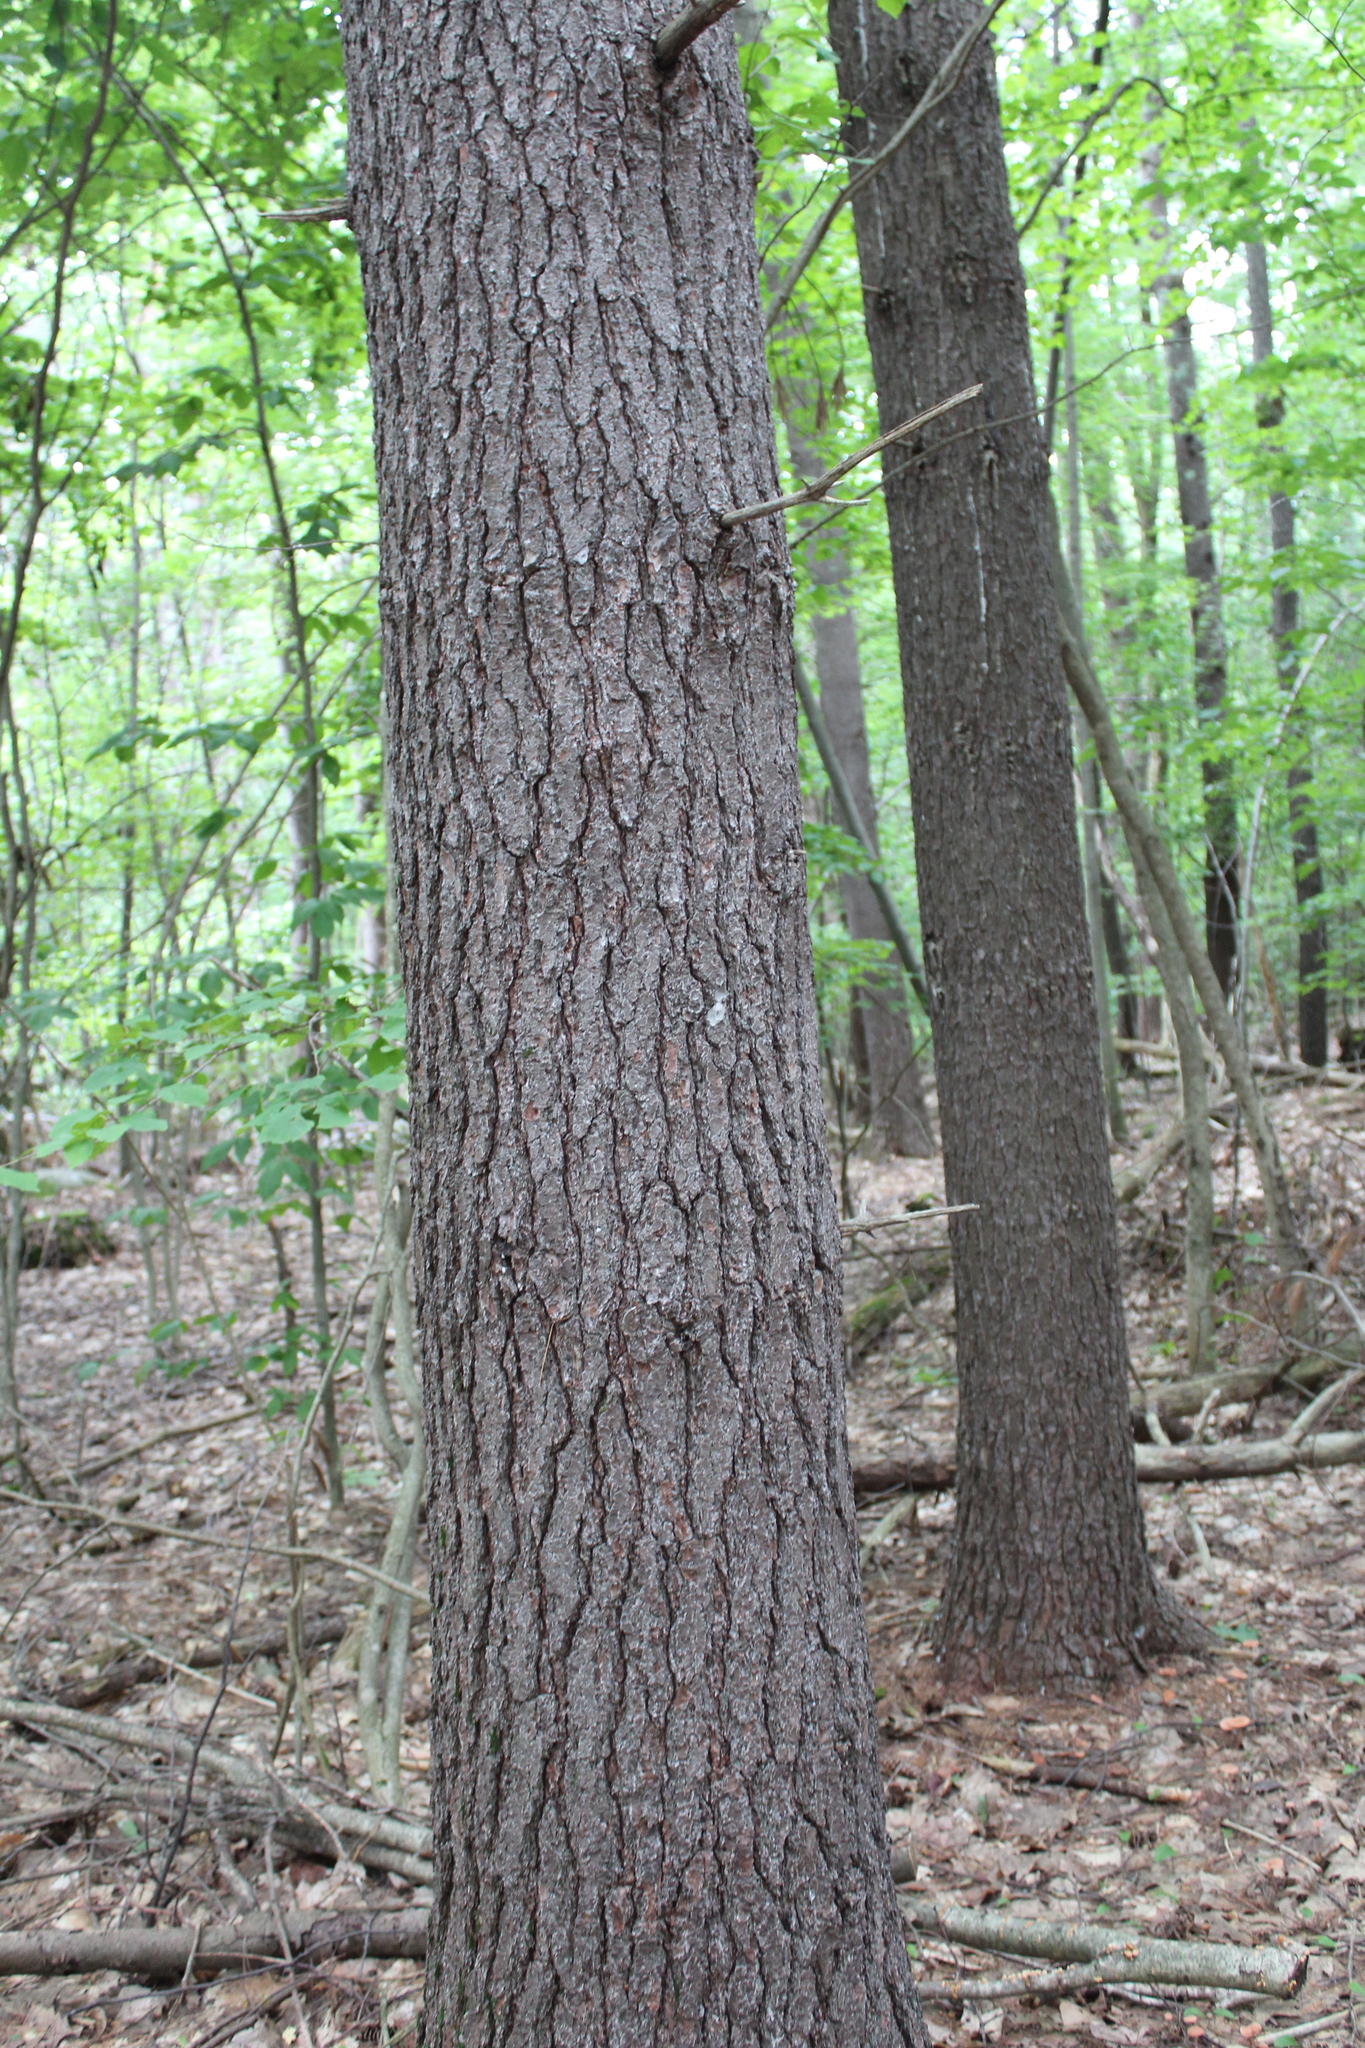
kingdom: Plantae
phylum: Tracheophyta
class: Pinopsida
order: Pinales
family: Pinaceae
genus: Pinus
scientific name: Pinus strobus
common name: Weymouth pine
